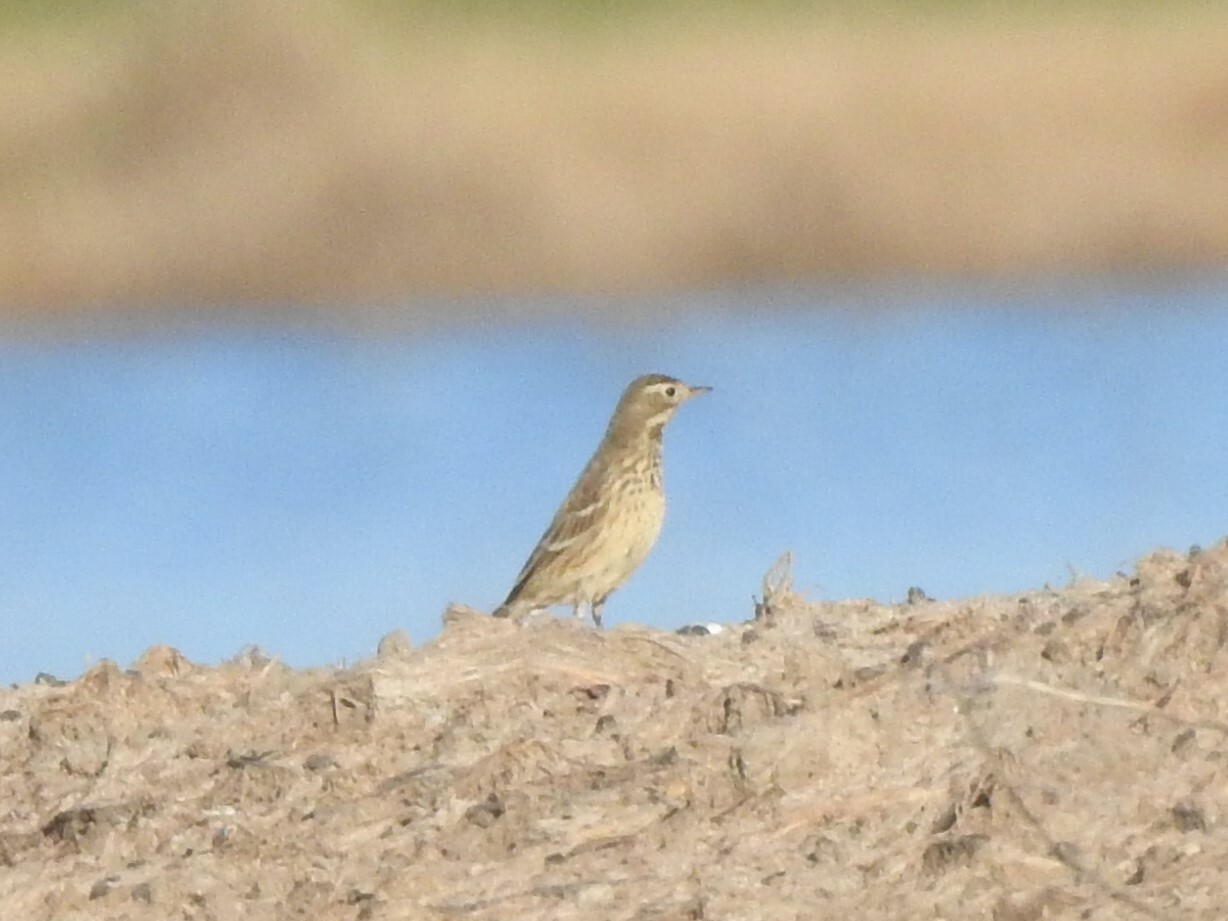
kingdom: Animalia
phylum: Chordata
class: Aves
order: Passeriformes
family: Motacillidae
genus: Anthus
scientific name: Anthus rubescens
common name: Buff-bellied pipit
